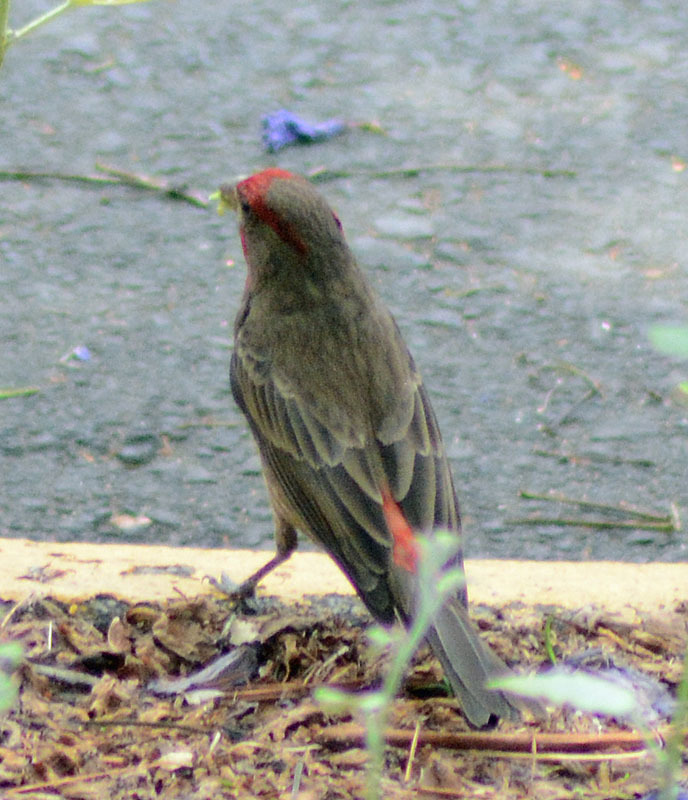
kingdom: Animalia
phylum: Chordata
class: Aves
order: Passeriformes
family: Fringillidae
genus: Haemorhous
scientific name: Haemorhous mexicanus
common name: House finch
